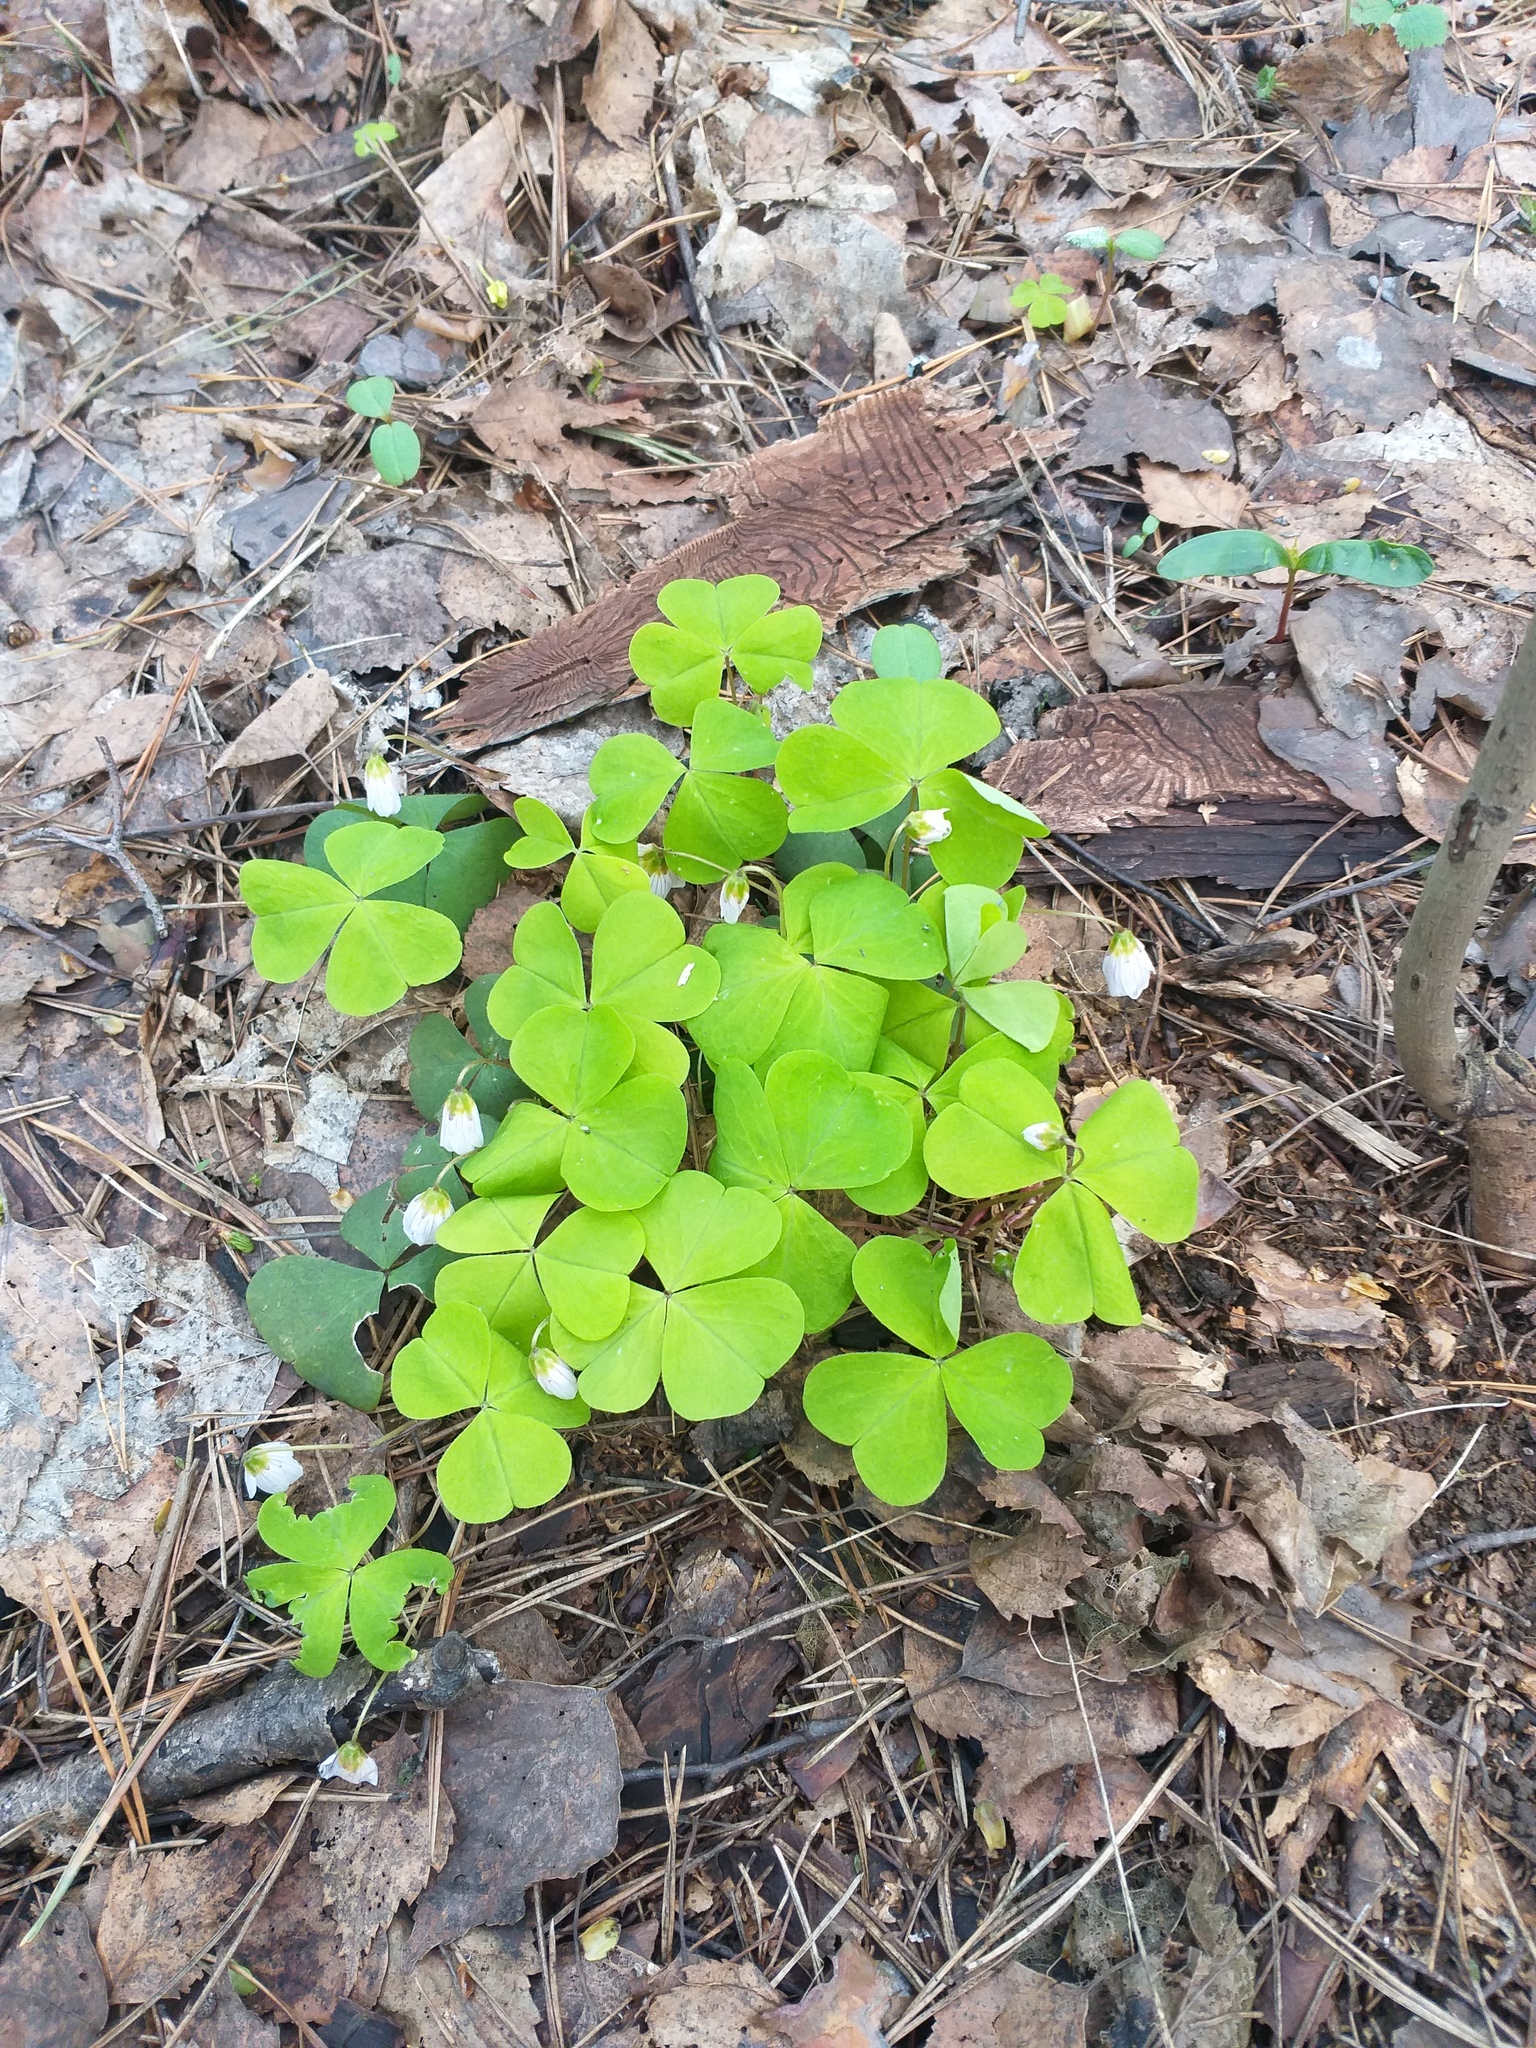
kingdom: Plantae
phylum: Tracheophyta
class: Magnoliopsida
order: Oxalidales
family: Oxalidaceae
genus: Oxalis
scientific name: Oxalis acetosella
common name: Wood-sorrel
